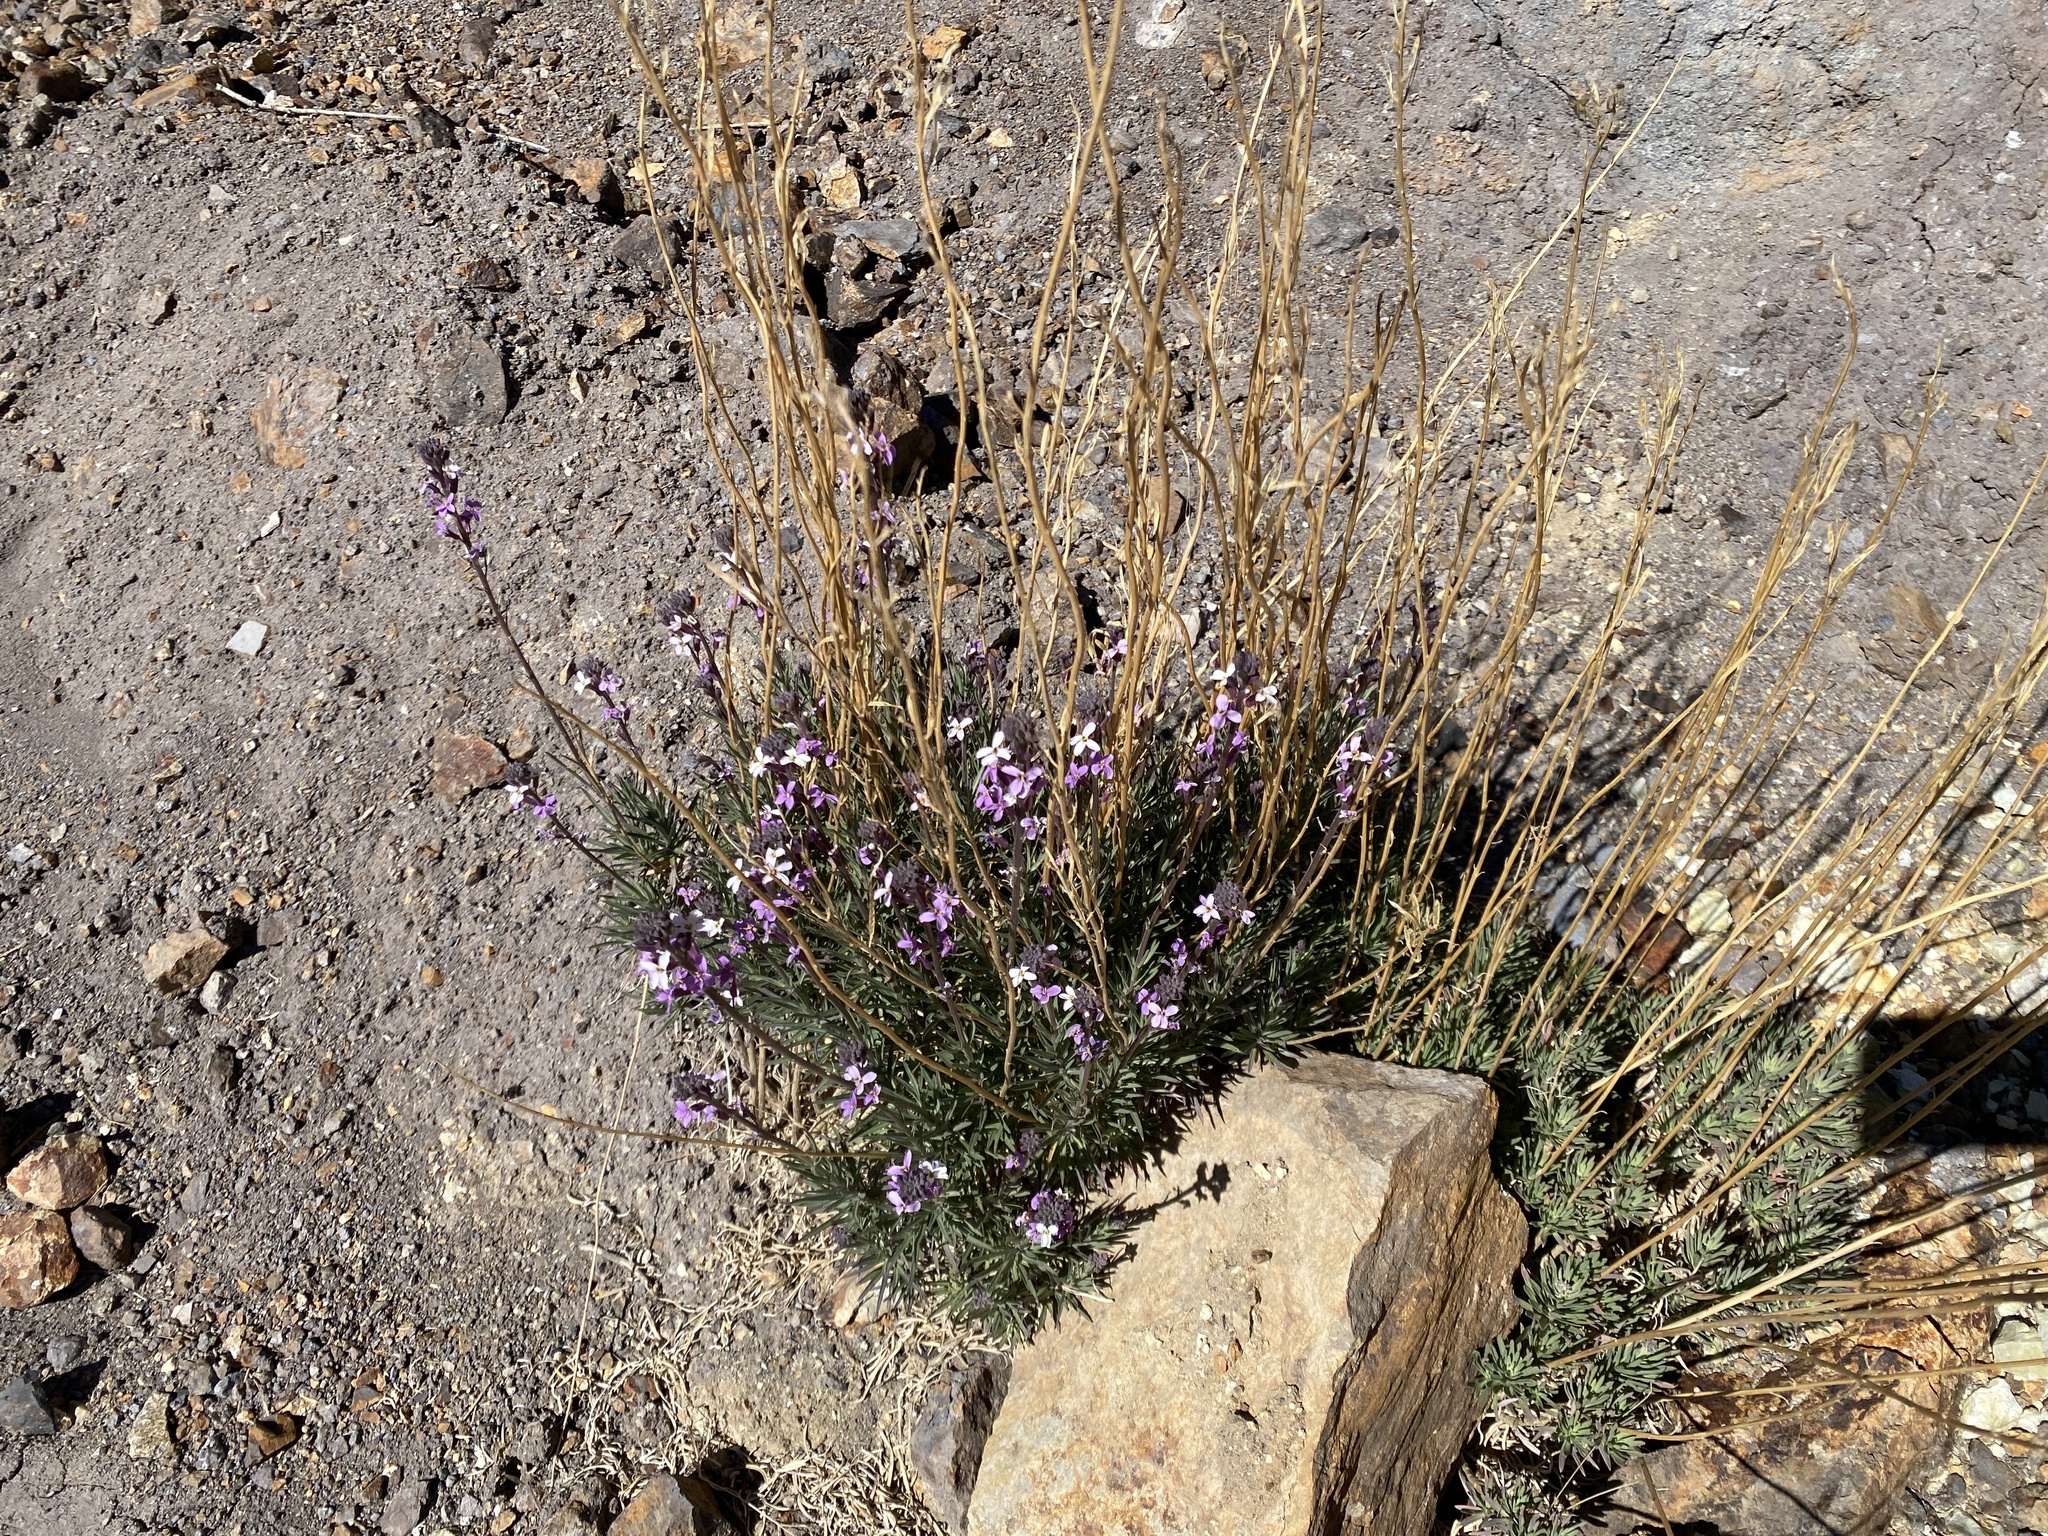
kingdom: Plantae
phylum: Tracheophyta
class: Magnoliopsida
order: Brassicales
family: Brassicaceae
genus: Erysimum
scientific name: Erysimum scoparium
